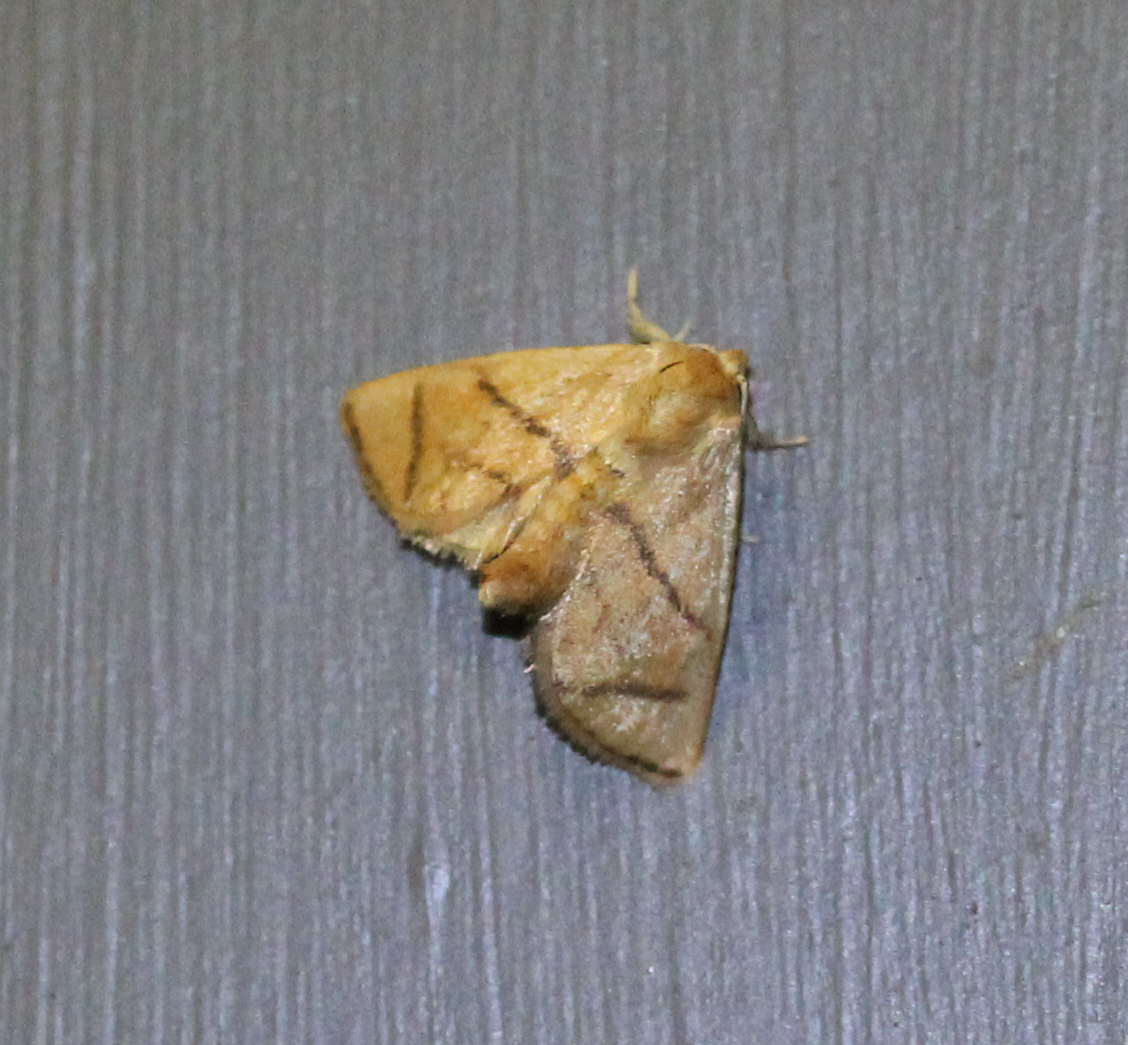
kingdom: Animalia
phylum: Arthropoda
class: Insecta
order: Lepidoptera
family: Limacodidae
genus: Apoda
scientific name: Apoda y-inversa
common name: Yellow-collared slug moth
